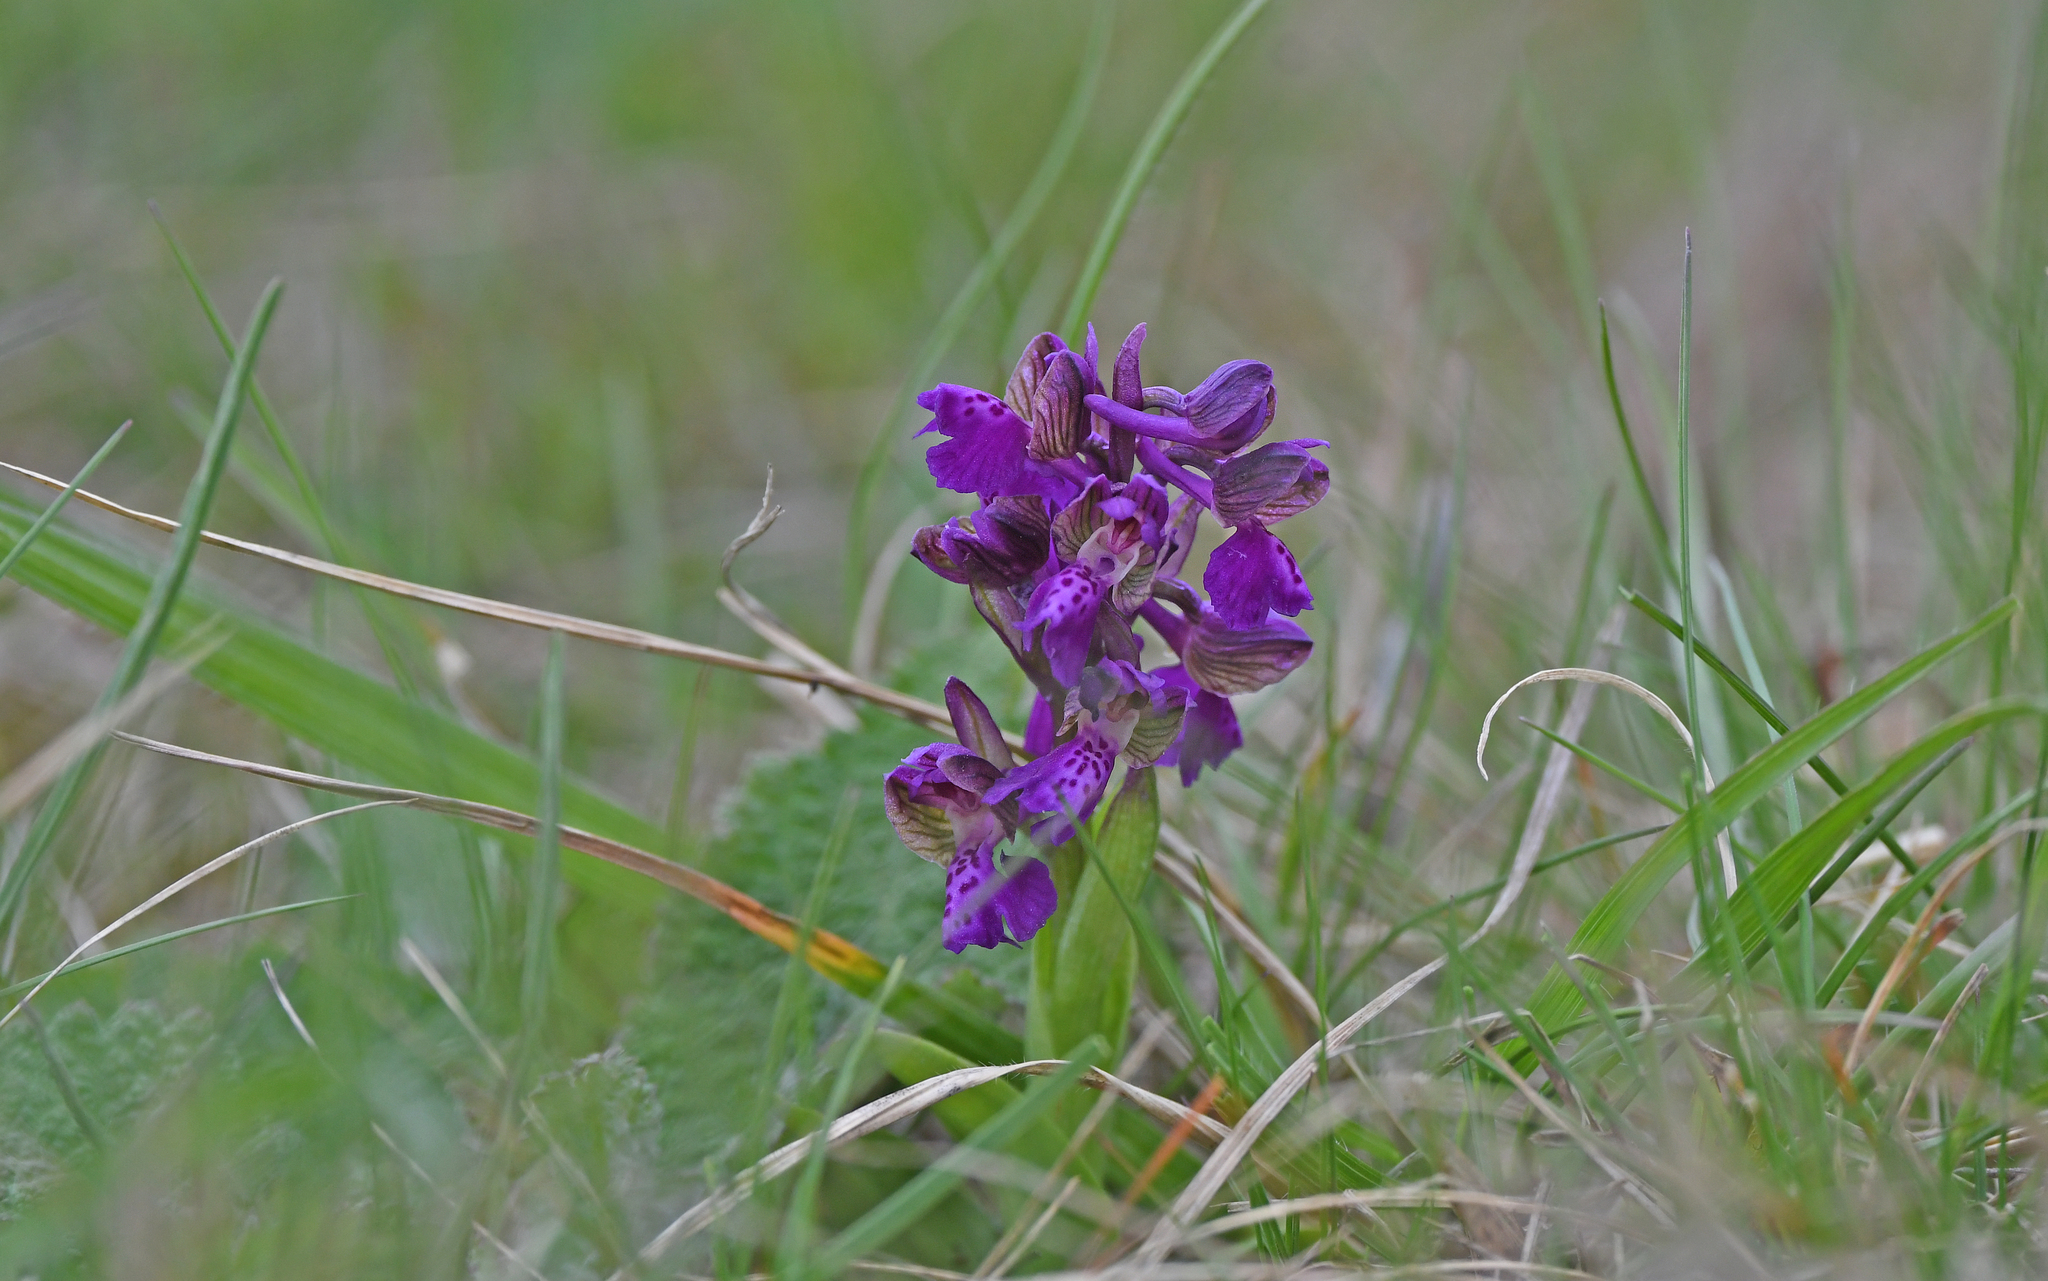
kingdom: Plantae
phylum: Tracheophyta
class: Liliopsida
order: Asparagales
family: Orchidaceae
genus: Anacamptis
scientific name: Anacamptis morio
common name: Green-winged orchid
